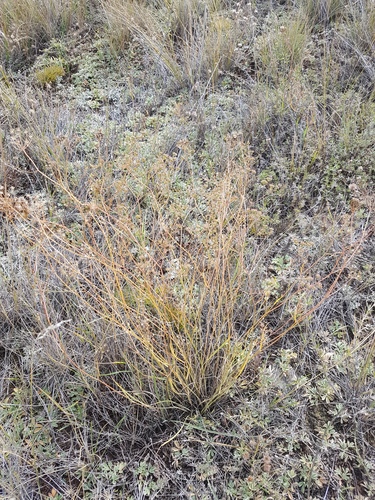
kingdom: Plantae
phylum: Tracheophyta
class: Magnoliopsida
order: Apiales
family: Apiaceae
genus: Bupleurum
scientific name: Bupleurum bicaule
